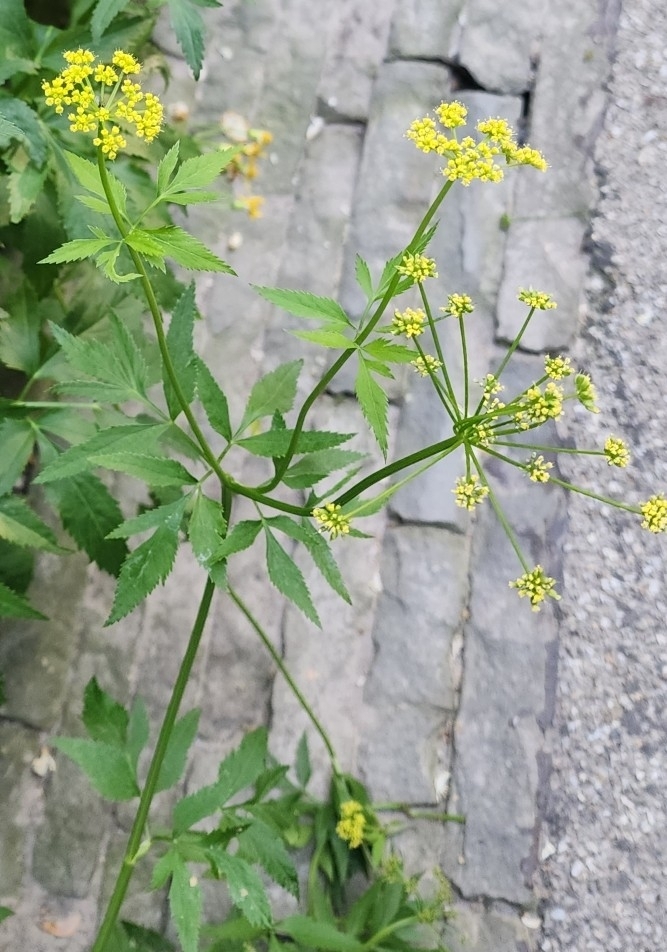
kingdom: Plantae
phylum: Tracheophyta
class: Magnoliopsida
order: Apiales
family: Apiaceae
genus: Zizia
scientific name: Zizia aurea
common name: Golden alexanders
